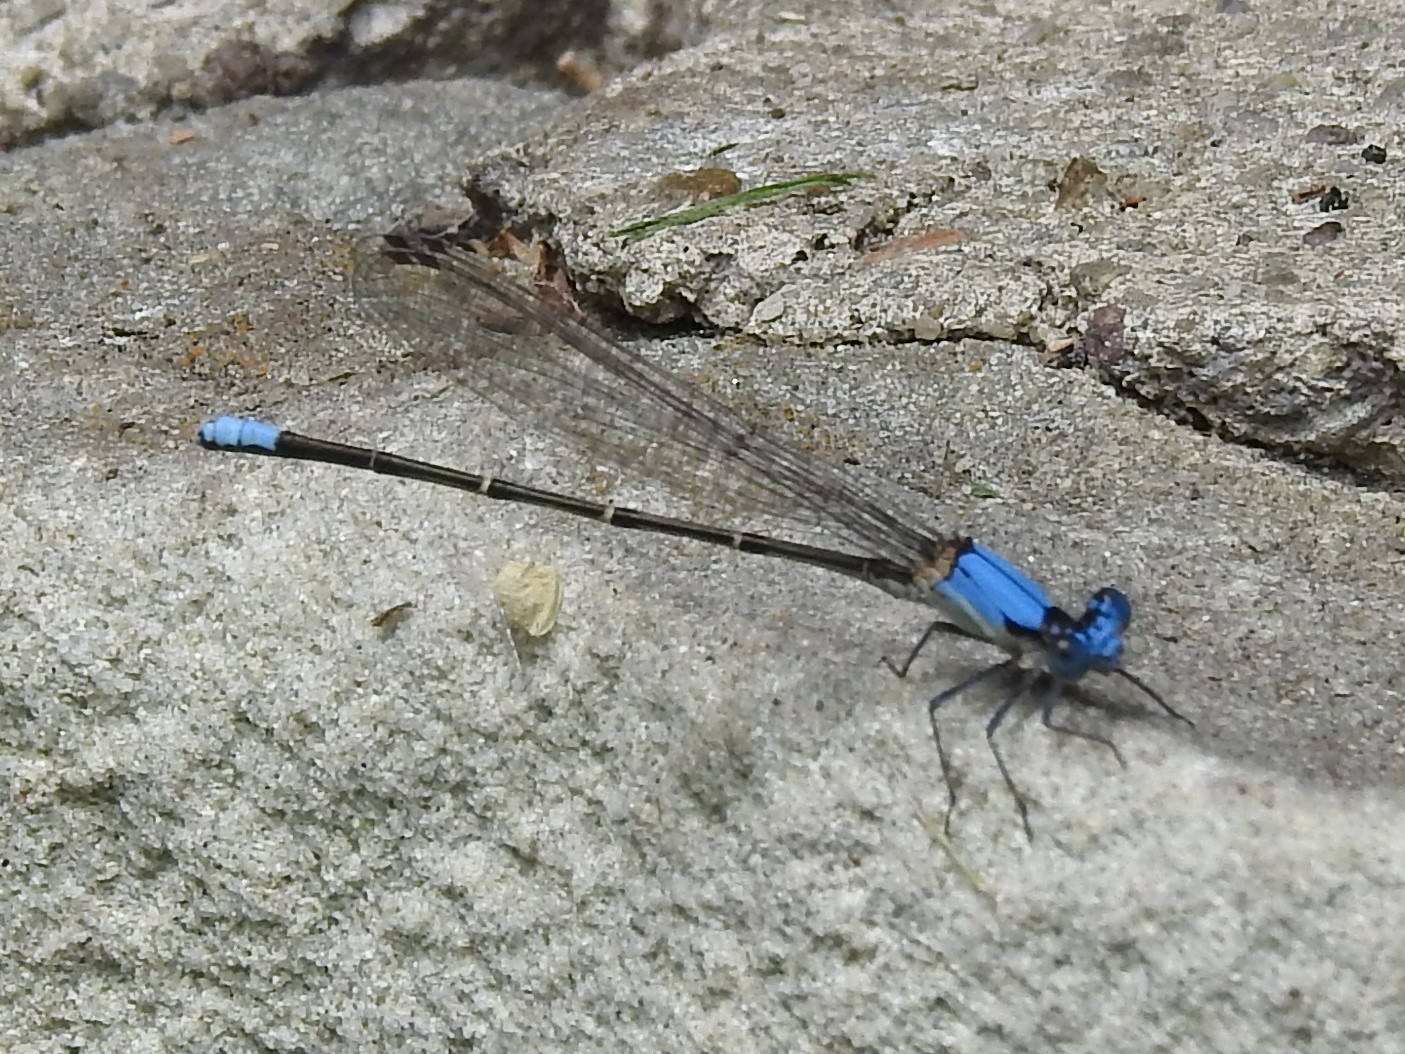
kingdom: Animalia
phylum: Arthropoda
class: Insecta
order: Odonata
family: Coenagrionidae
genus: Argia
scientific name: Argia apicalis
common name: Blue-fronted dancer
